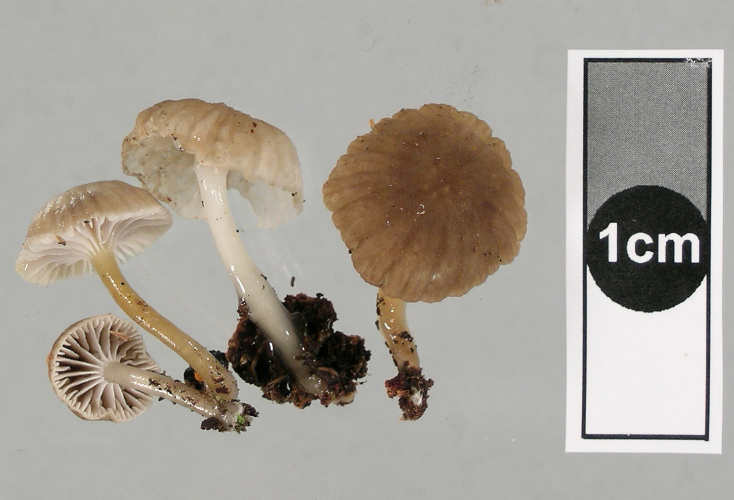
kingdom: Fungi
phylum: Basidiomycota
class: Agaricomycetes
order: Agaricales
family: Mycenaceae
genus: Roridomyces
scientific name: Roridomyces austrororidus
